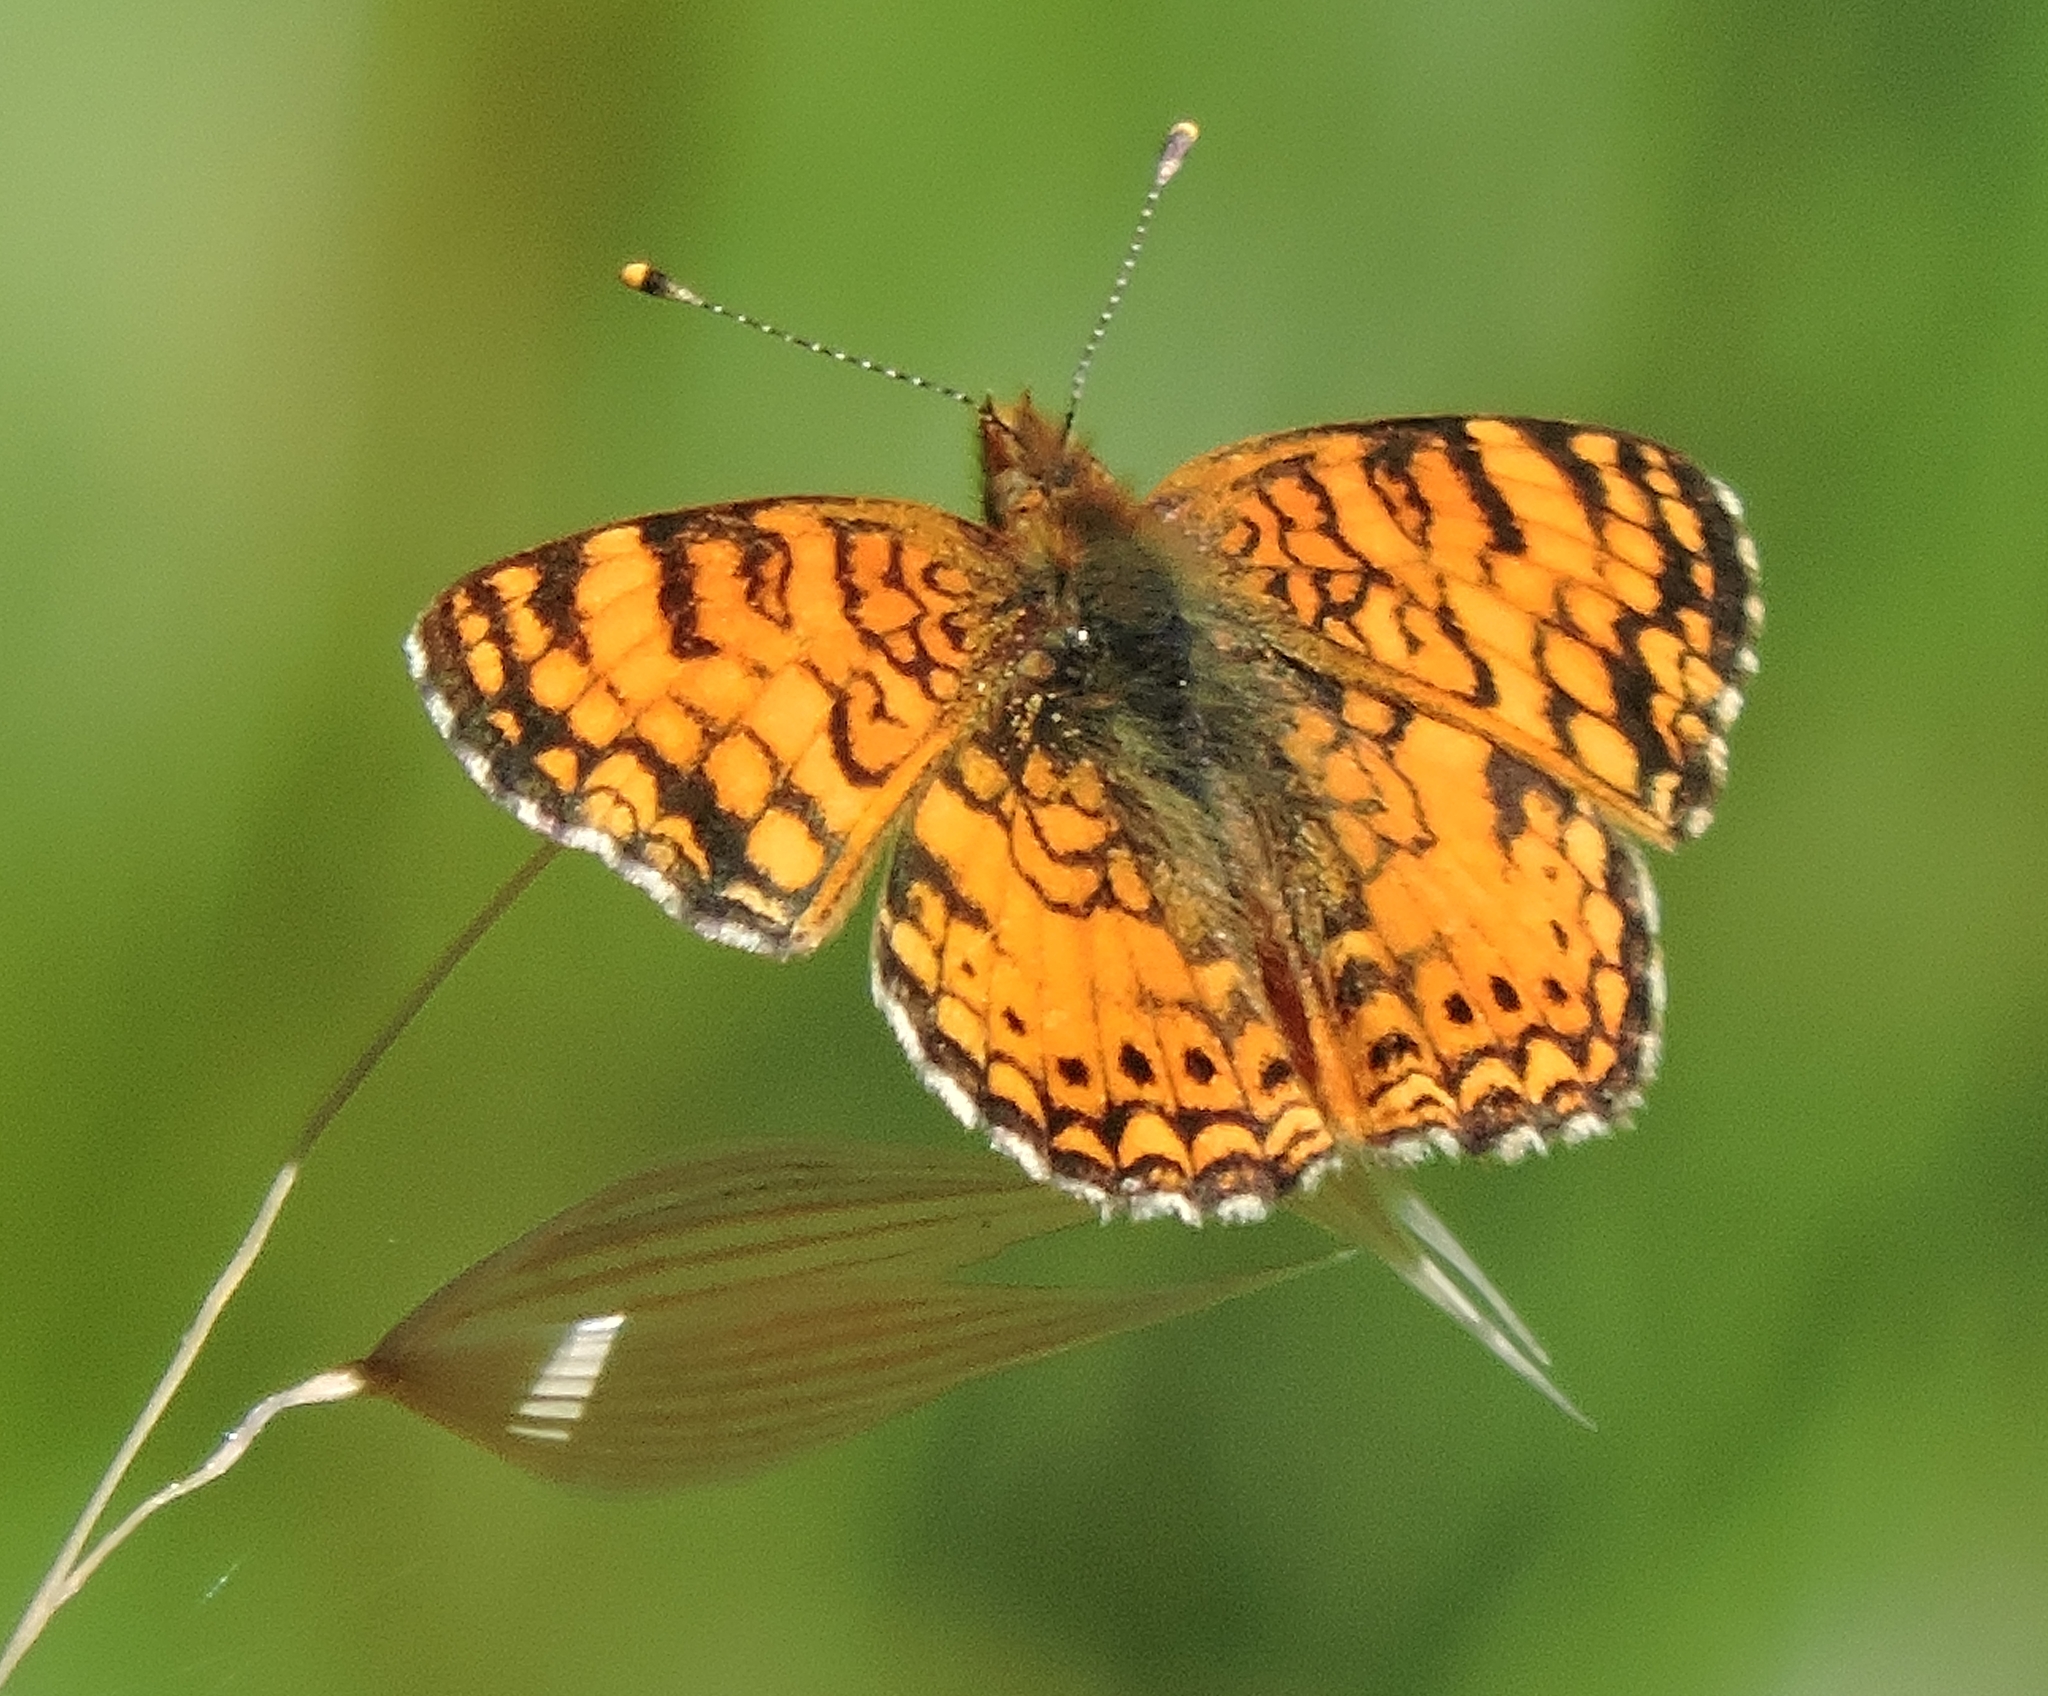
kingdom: Animalia
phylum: Arthropoda
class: Insecta
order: Lepidoptera
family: Nymphalidae
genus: Eresia
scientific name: Eresia aveyrona
